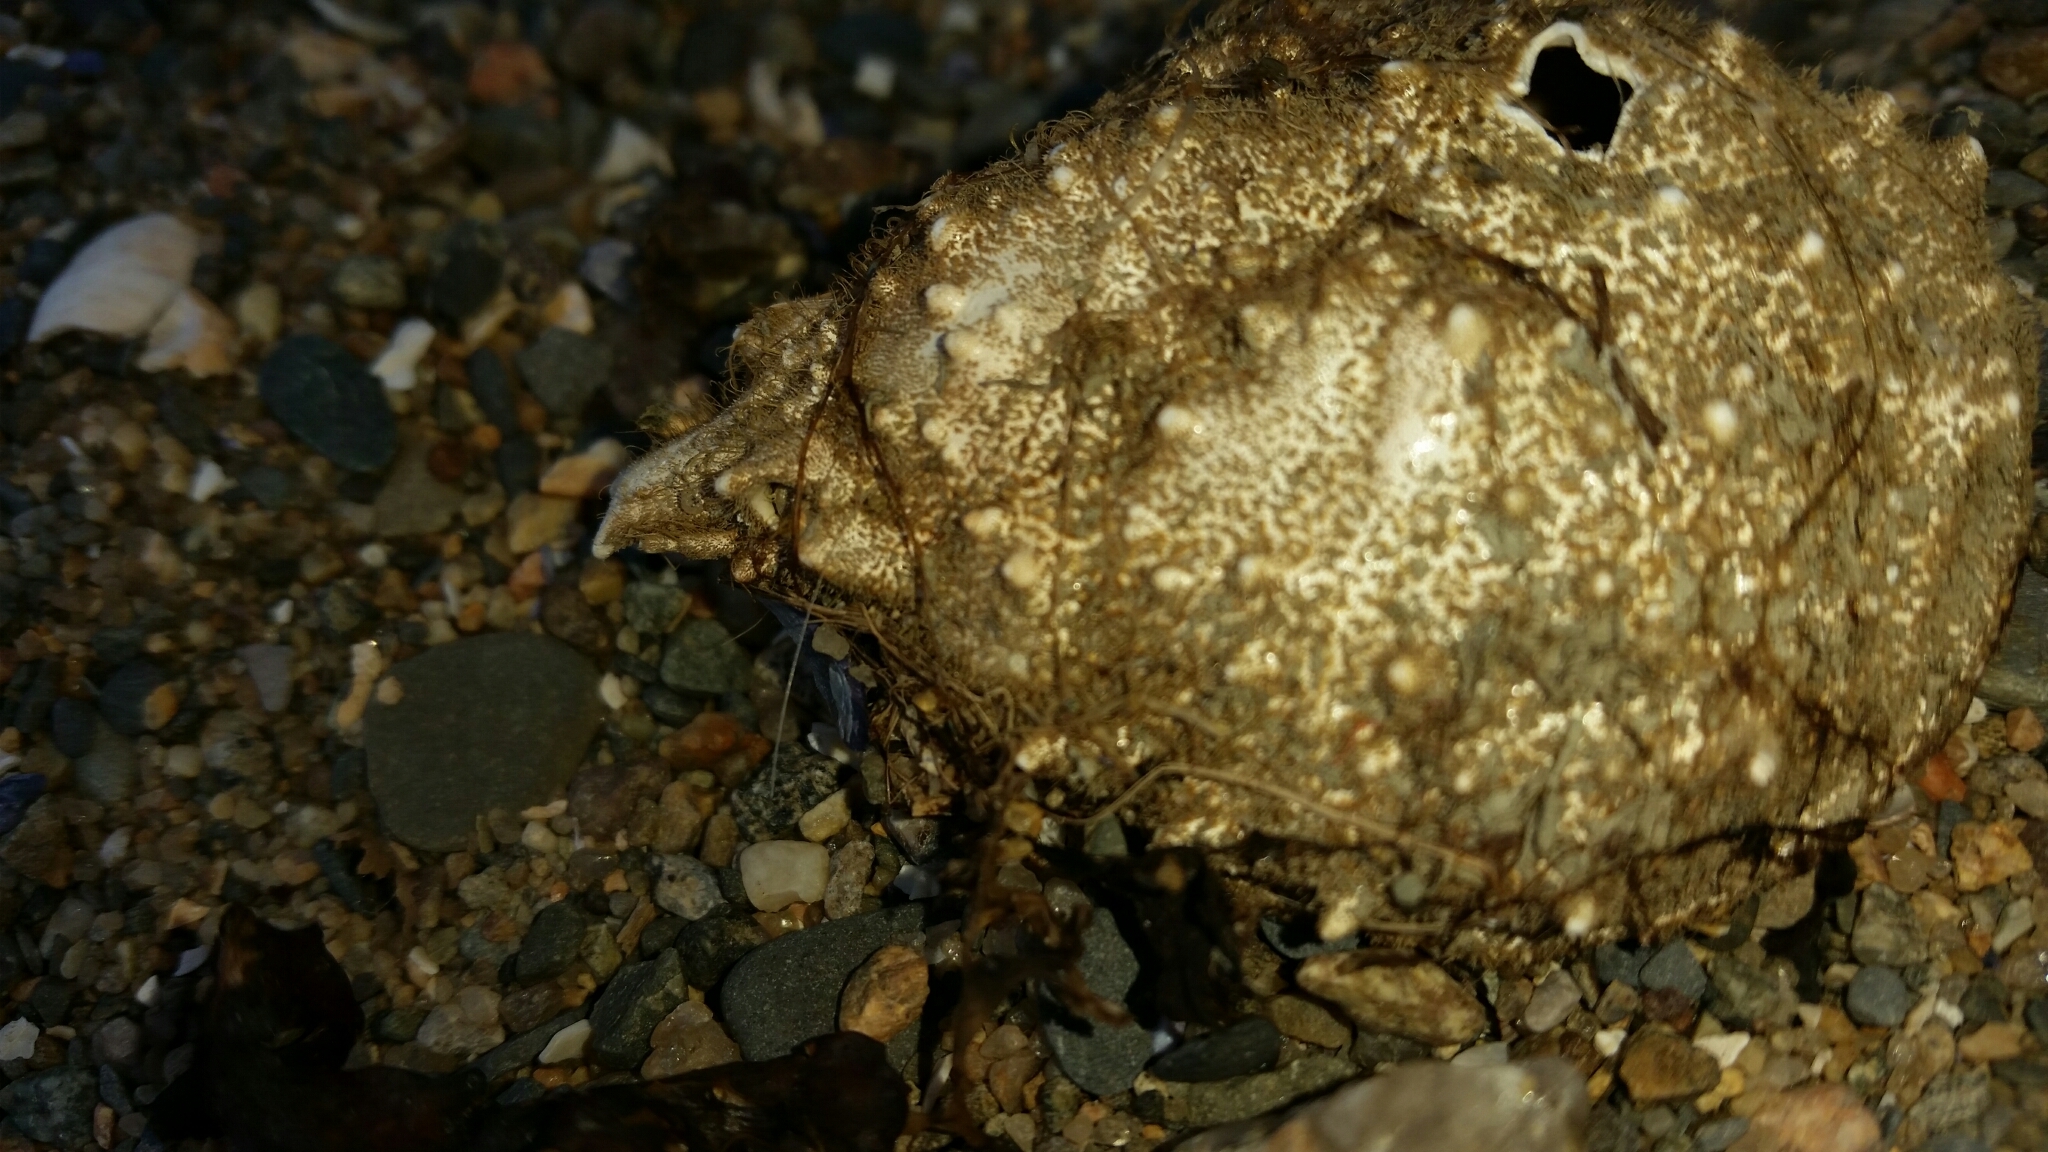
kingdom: Animalia
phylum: Arthropoda
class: Malacostraca
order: Decapoda
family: Epialtidae
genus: Libinia
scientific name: Libinia emarginata
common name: Common spider crab
